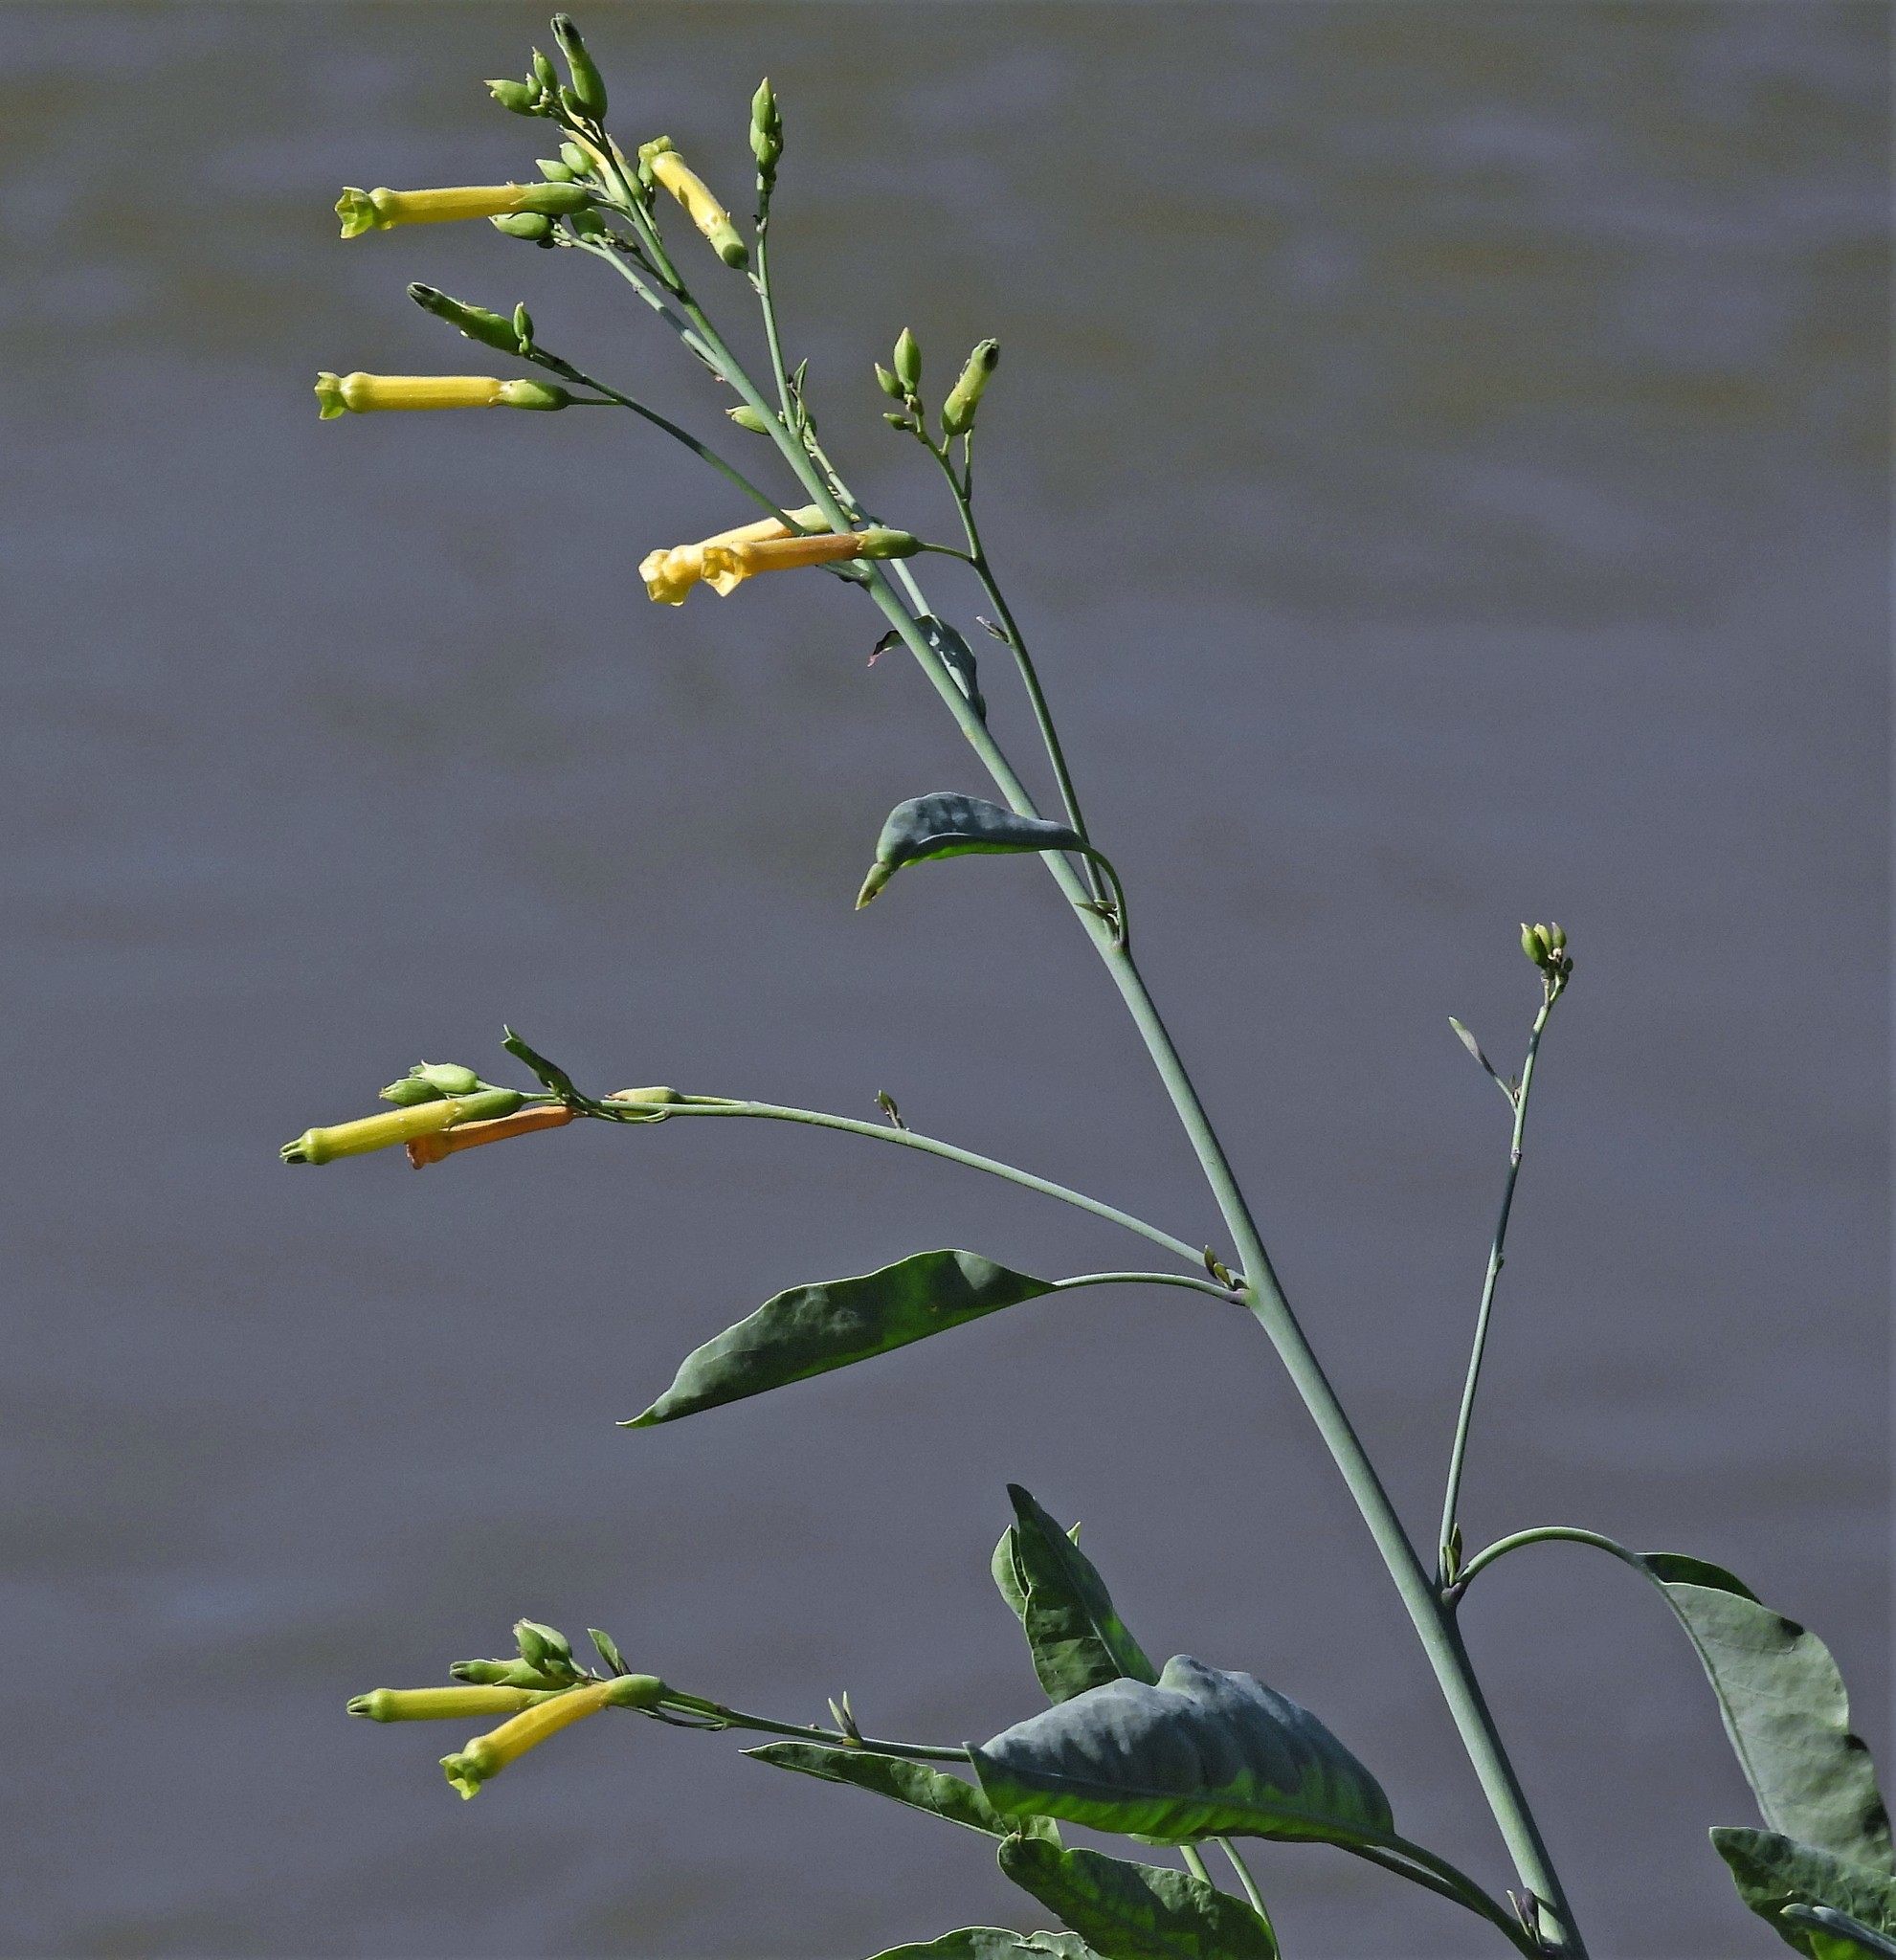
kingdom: Plantae
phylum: Tracheophyta
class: Magnoliopsida
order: Solanales
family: Solanaceae
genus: Nicotiana
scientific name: Nicotiana glauca
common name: Tree tobacco
